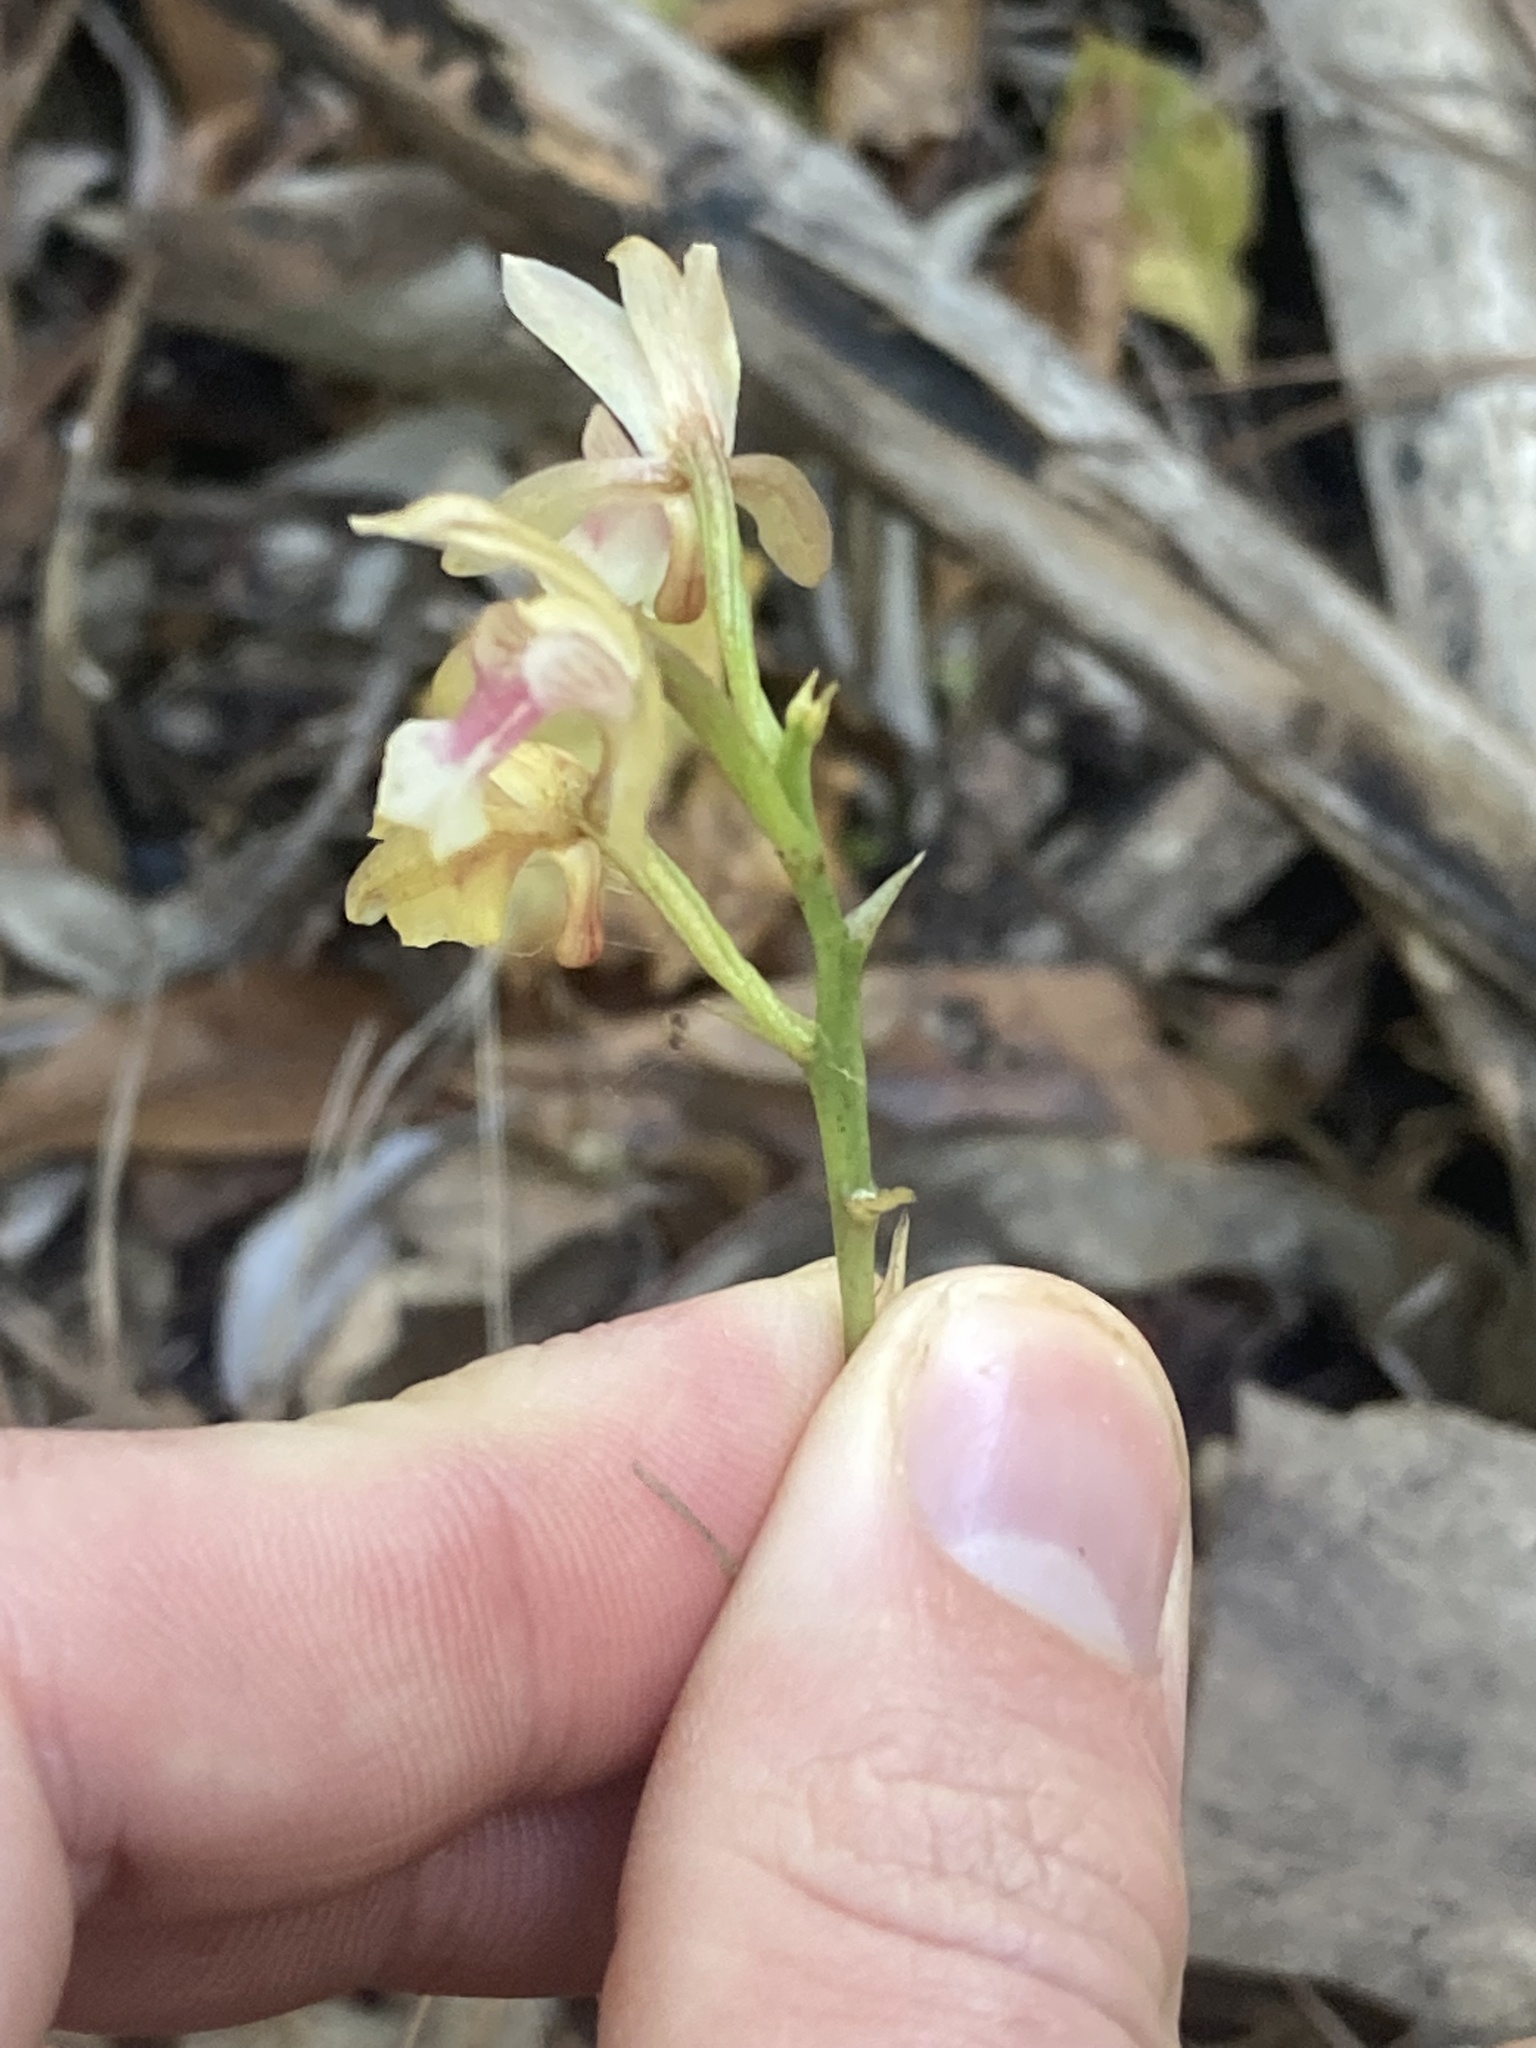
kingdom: Plantae
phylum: Tracheophyta
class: Liliopsida
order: Asparagales
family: Orchidaceae
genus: Eulophia
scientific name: Eulophia maculata
